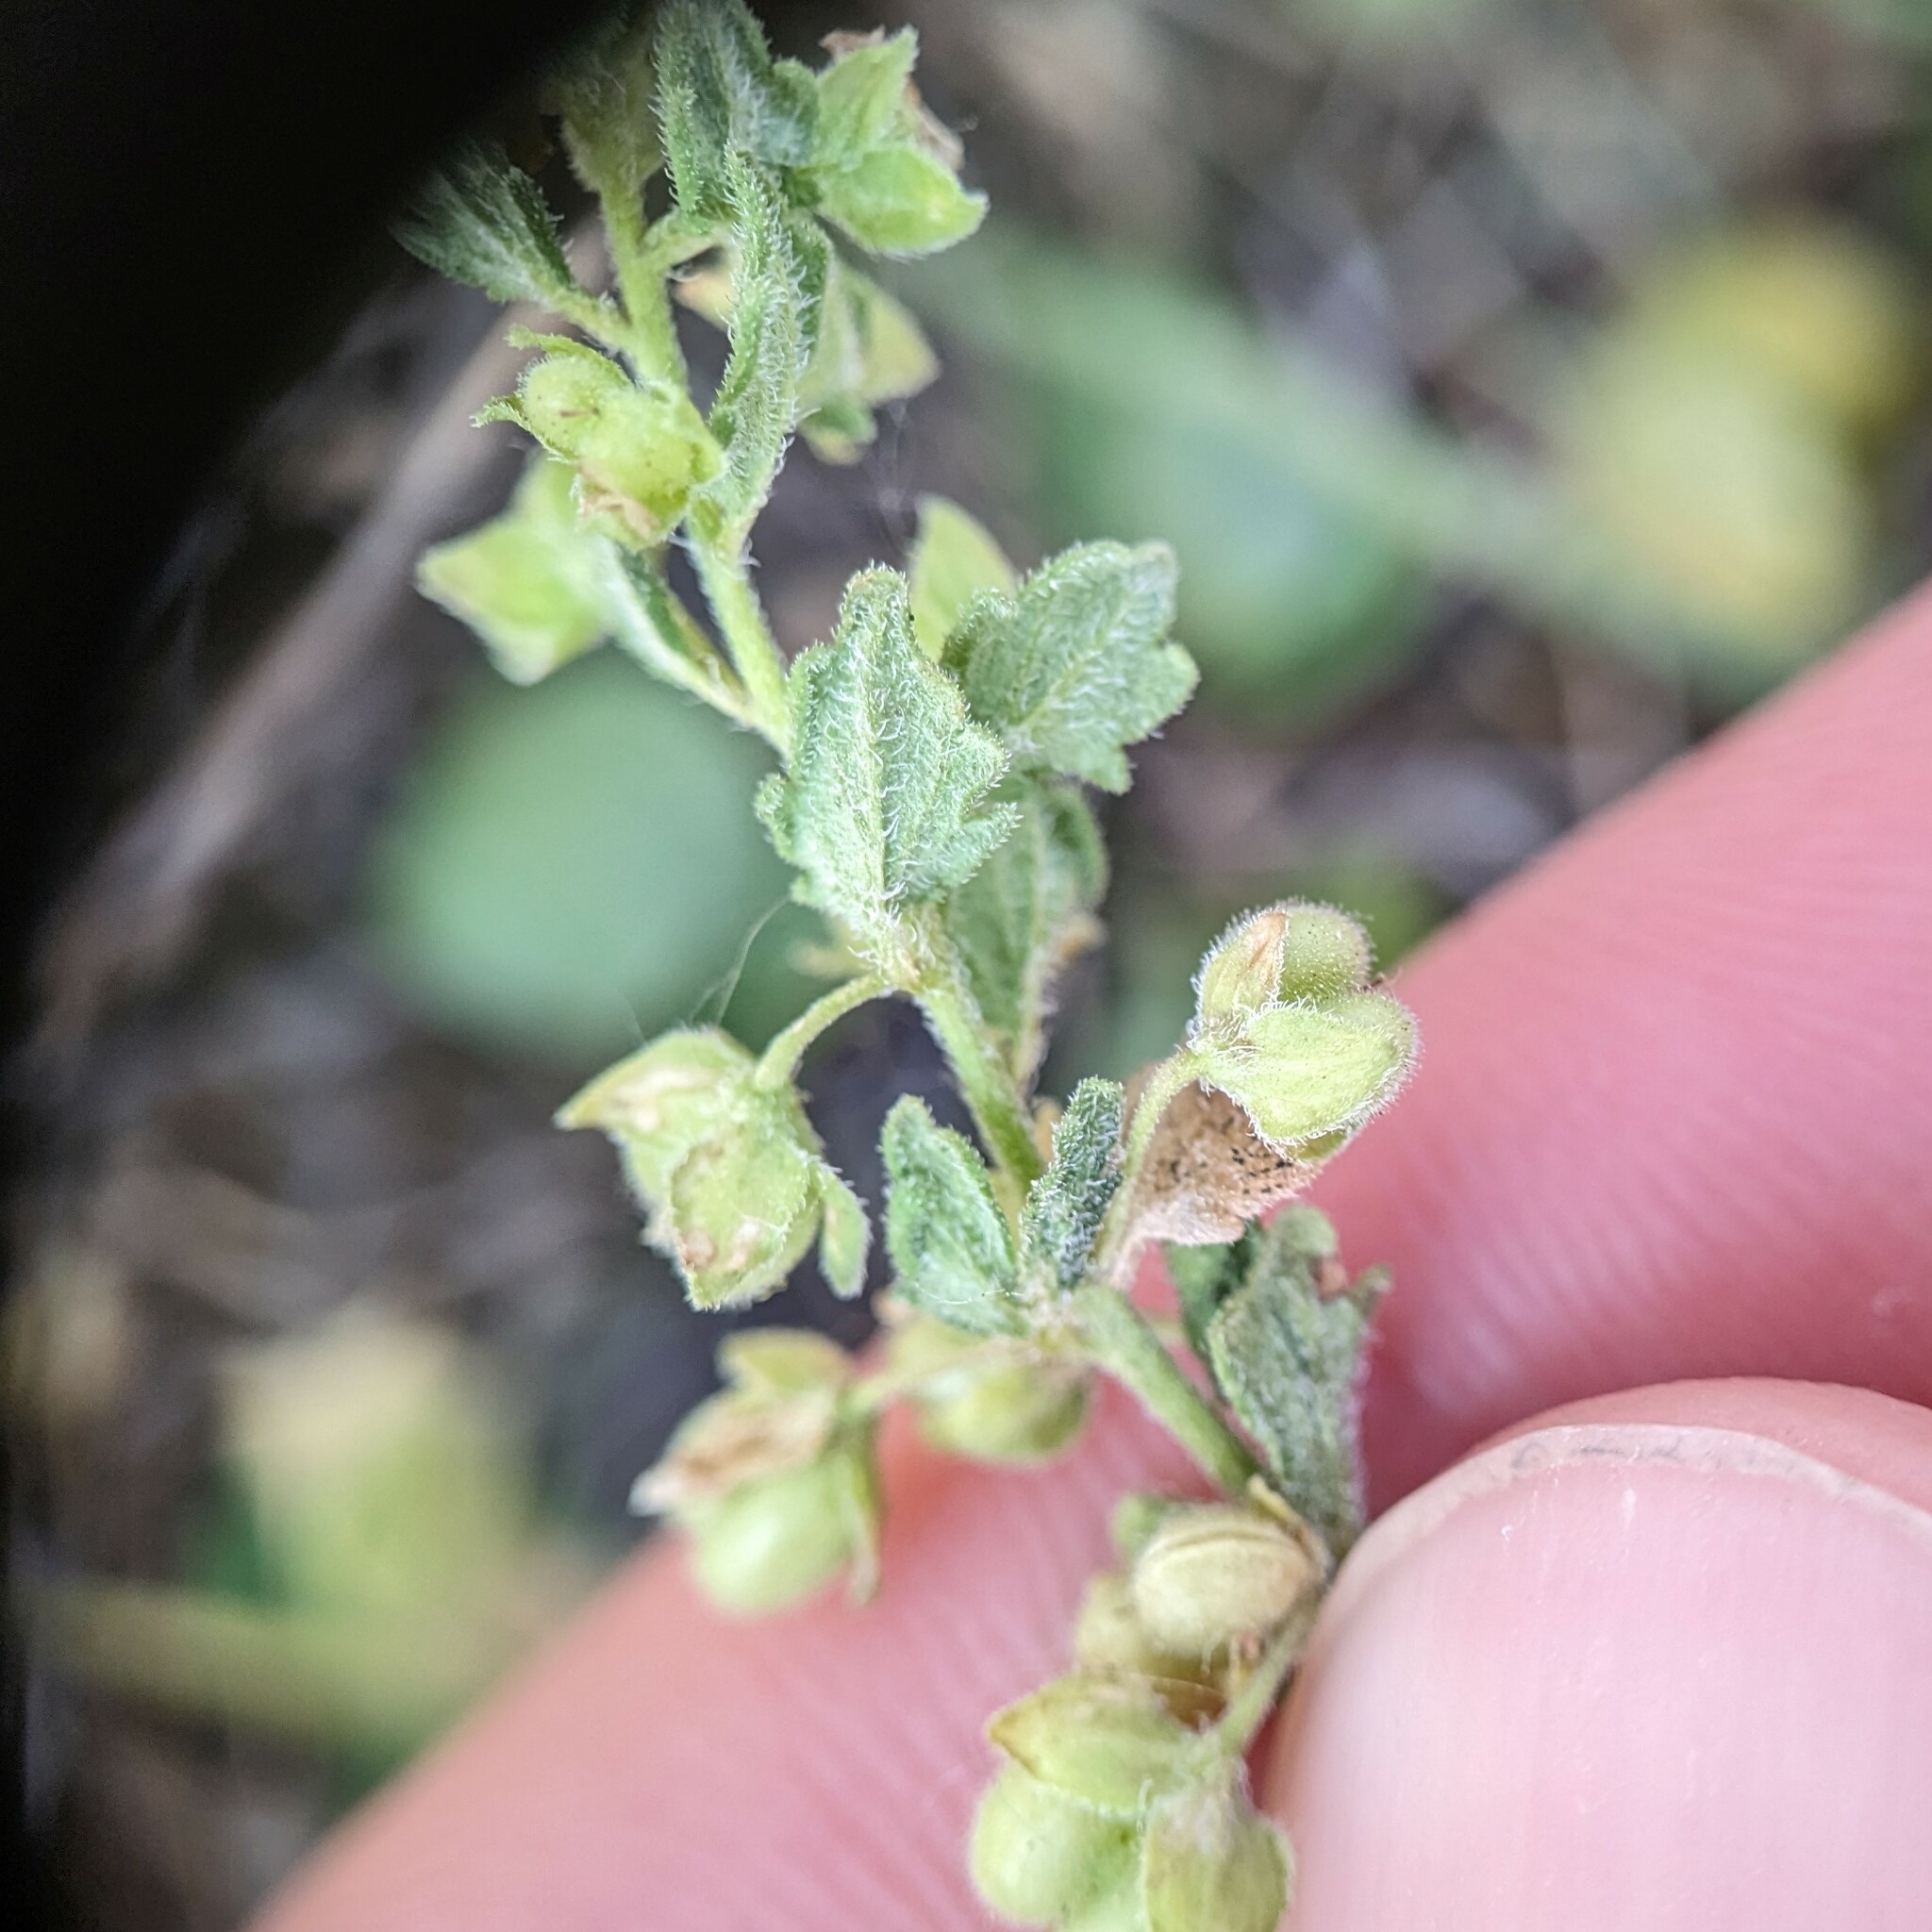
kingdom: Plantae
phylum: Tracheophyta
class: Magnoliopsida
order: Lamiales
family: Plantaginaceae
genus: Veronica
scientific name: Veronica polita
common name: Grey field-speedwell
